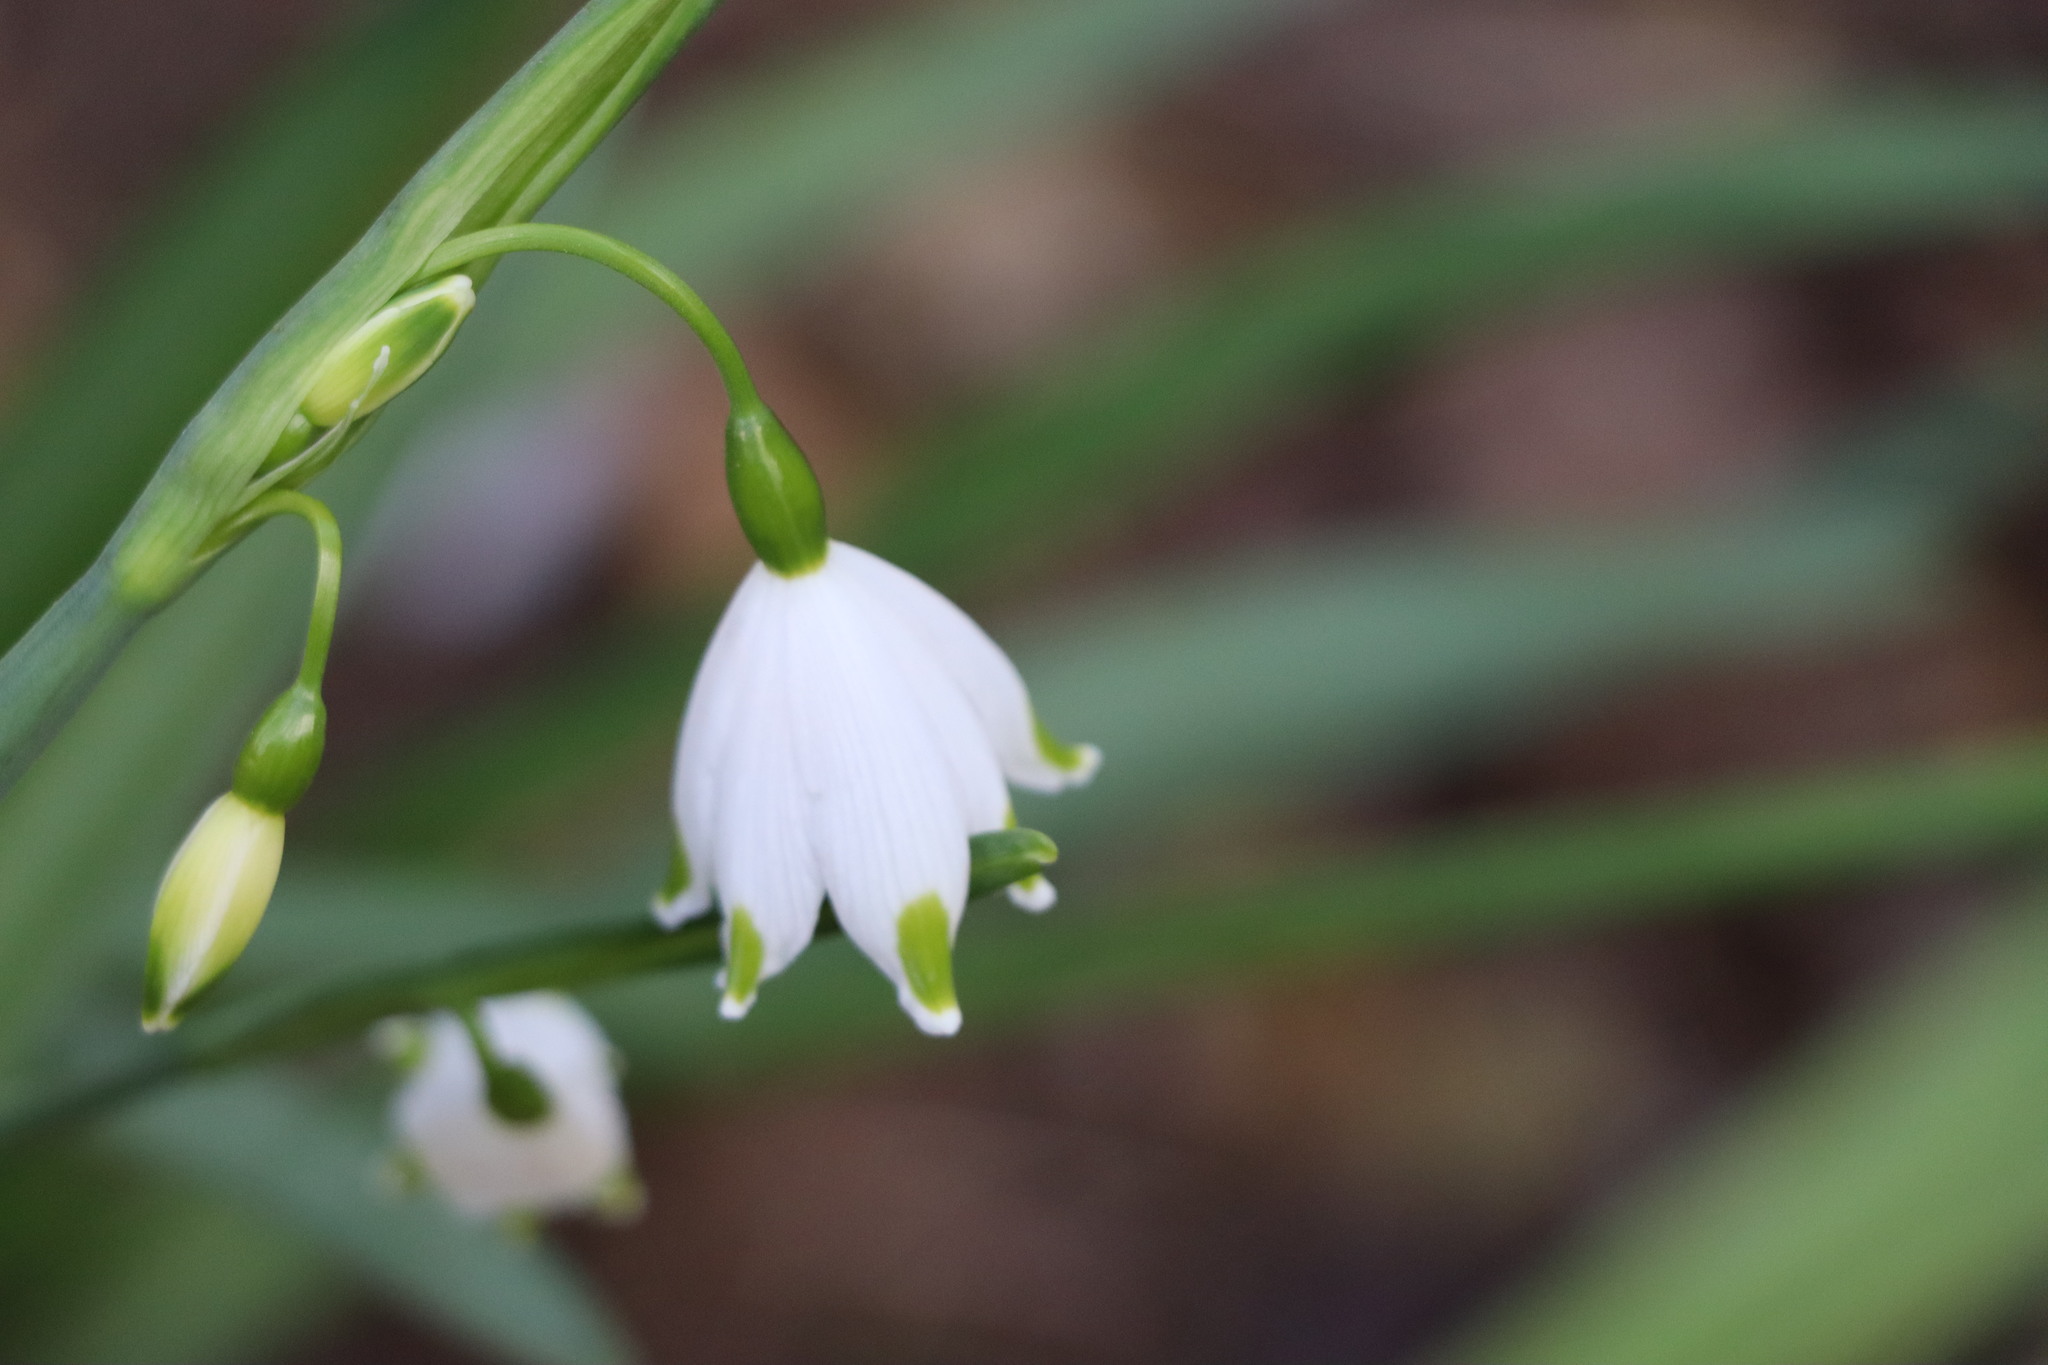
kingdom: Plantae
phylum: Tracheophyta
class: Liliopsida
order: Asparagales
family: Amaryllidaceae
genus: Leucojum
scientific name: Leucojum aestivum
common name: Summer snowflake
